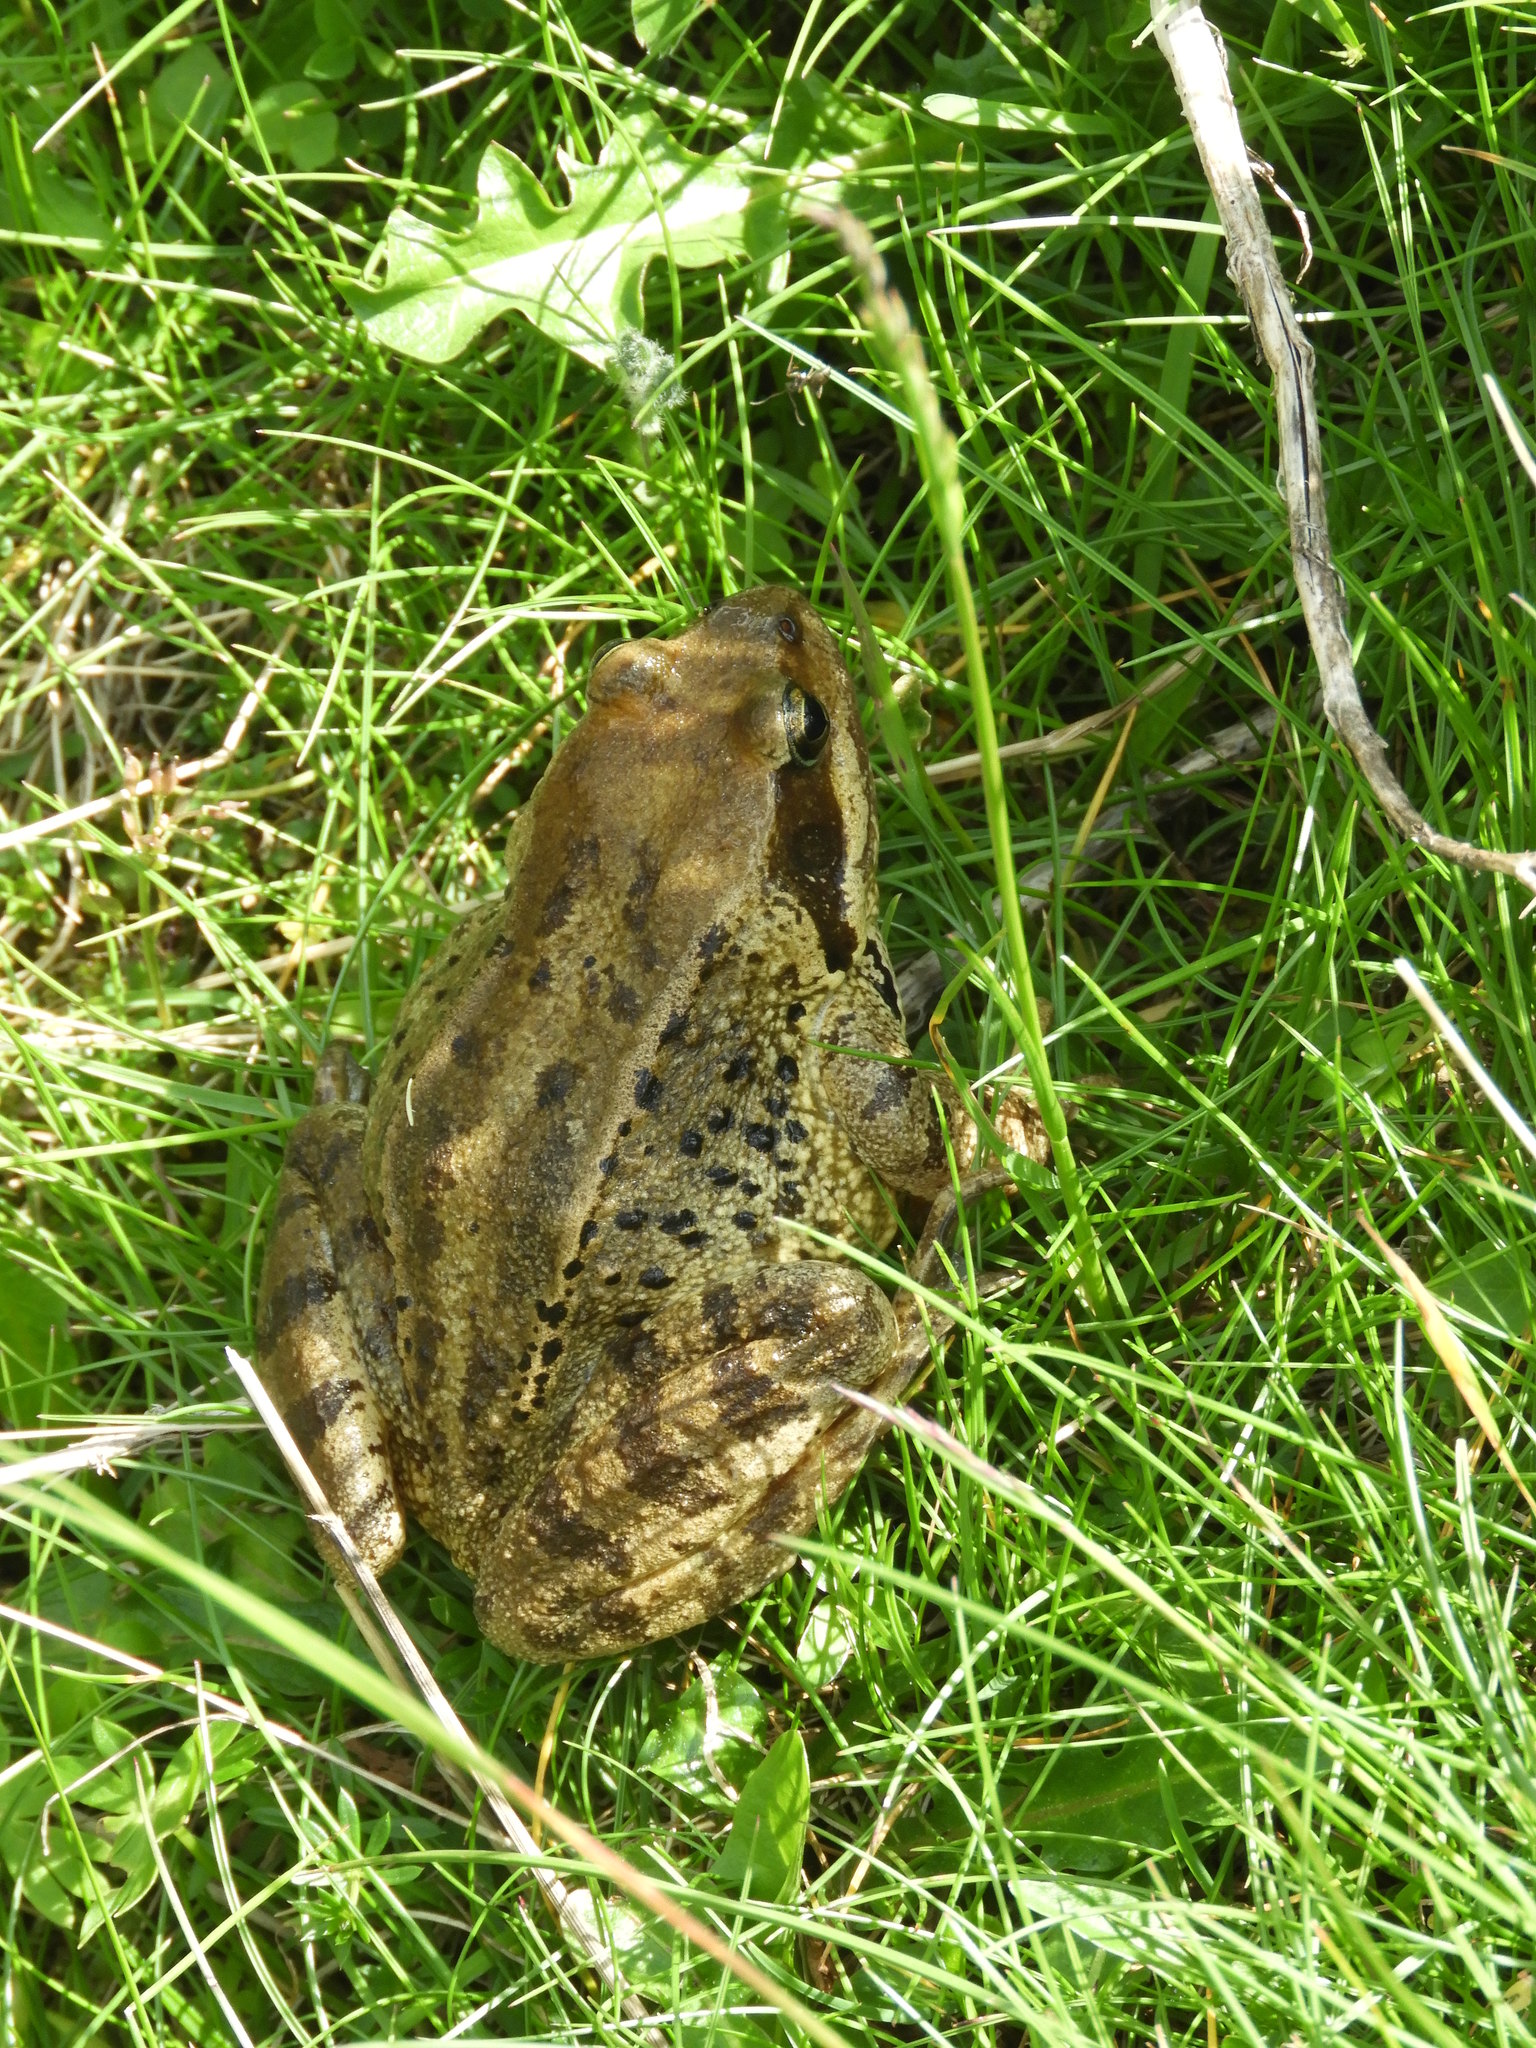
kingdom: Animalia
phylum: Chordata
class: Amphibia
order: Anura
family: Ranidae
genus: Rana
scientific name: Rana temporaria
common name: Common frog
